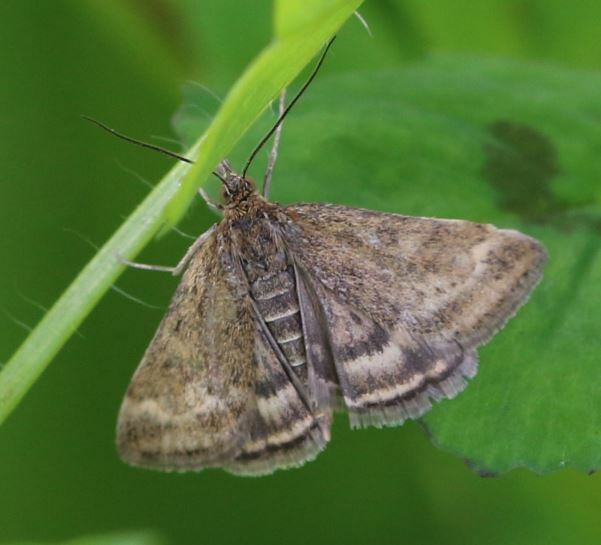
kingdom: Animalia
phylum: Arthropoda
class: Insecta
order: Lepidoptera
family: Crambidae
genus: Pyrausta
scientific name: Pyrausta despicata
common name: Straw-barred pearl
